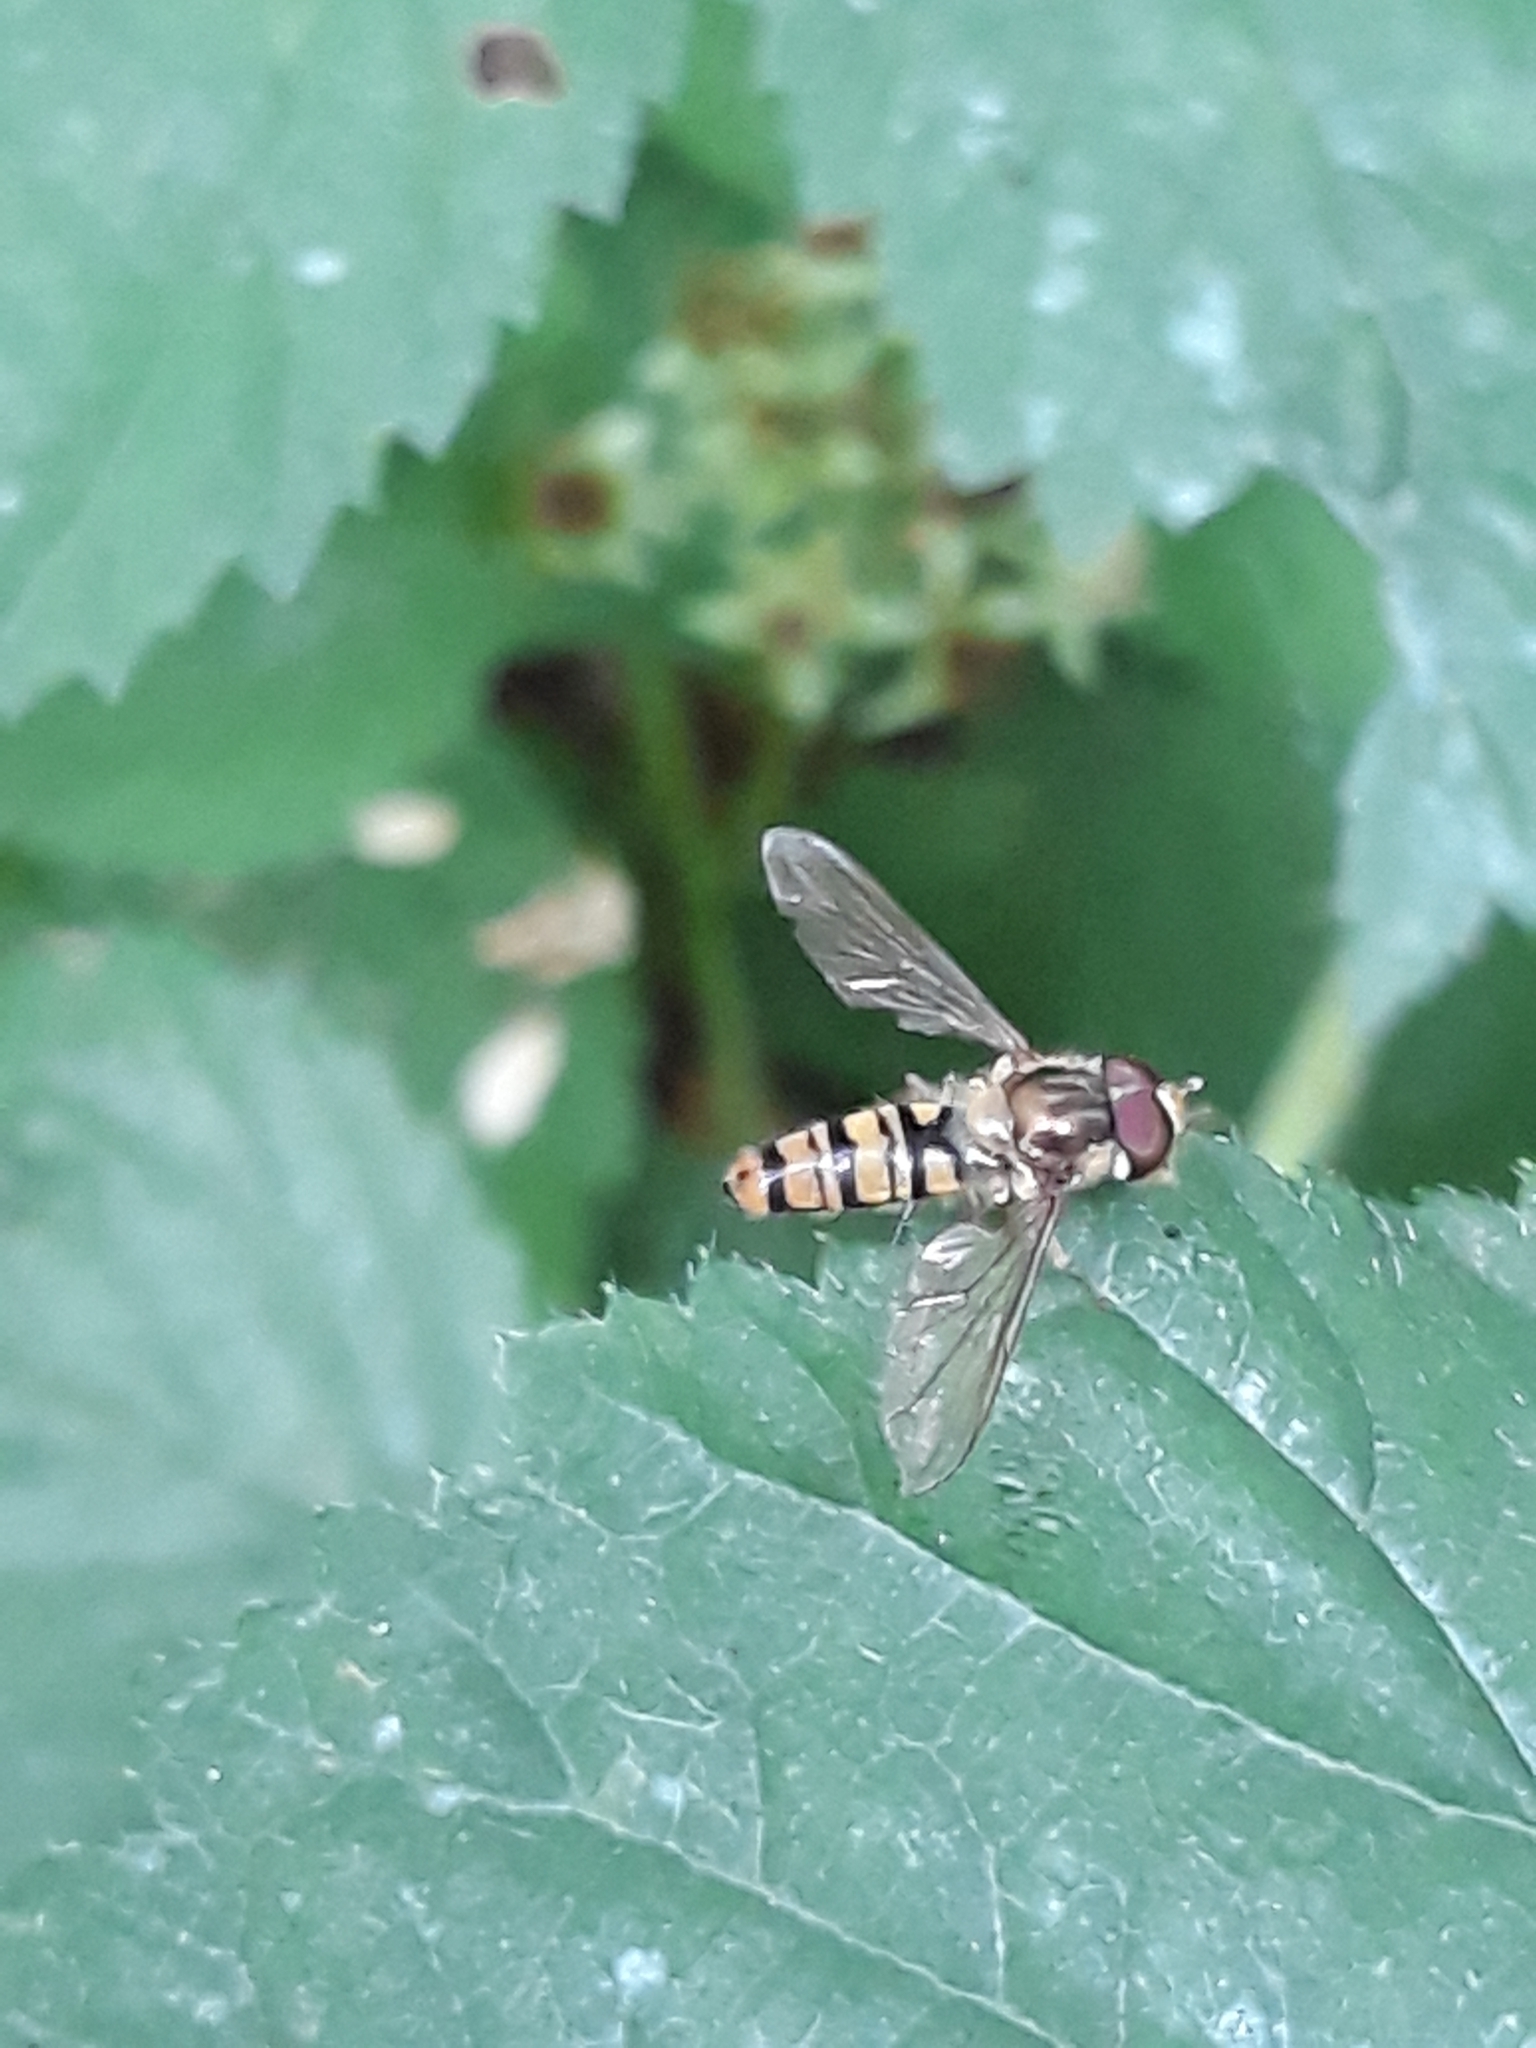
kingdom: Animalia
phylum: Arthropoda
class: Insecta
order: Diptera
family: Syrphidae
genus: Episyrphus
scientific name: Episyrphus balteatus
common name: Marmalade hoverfly
